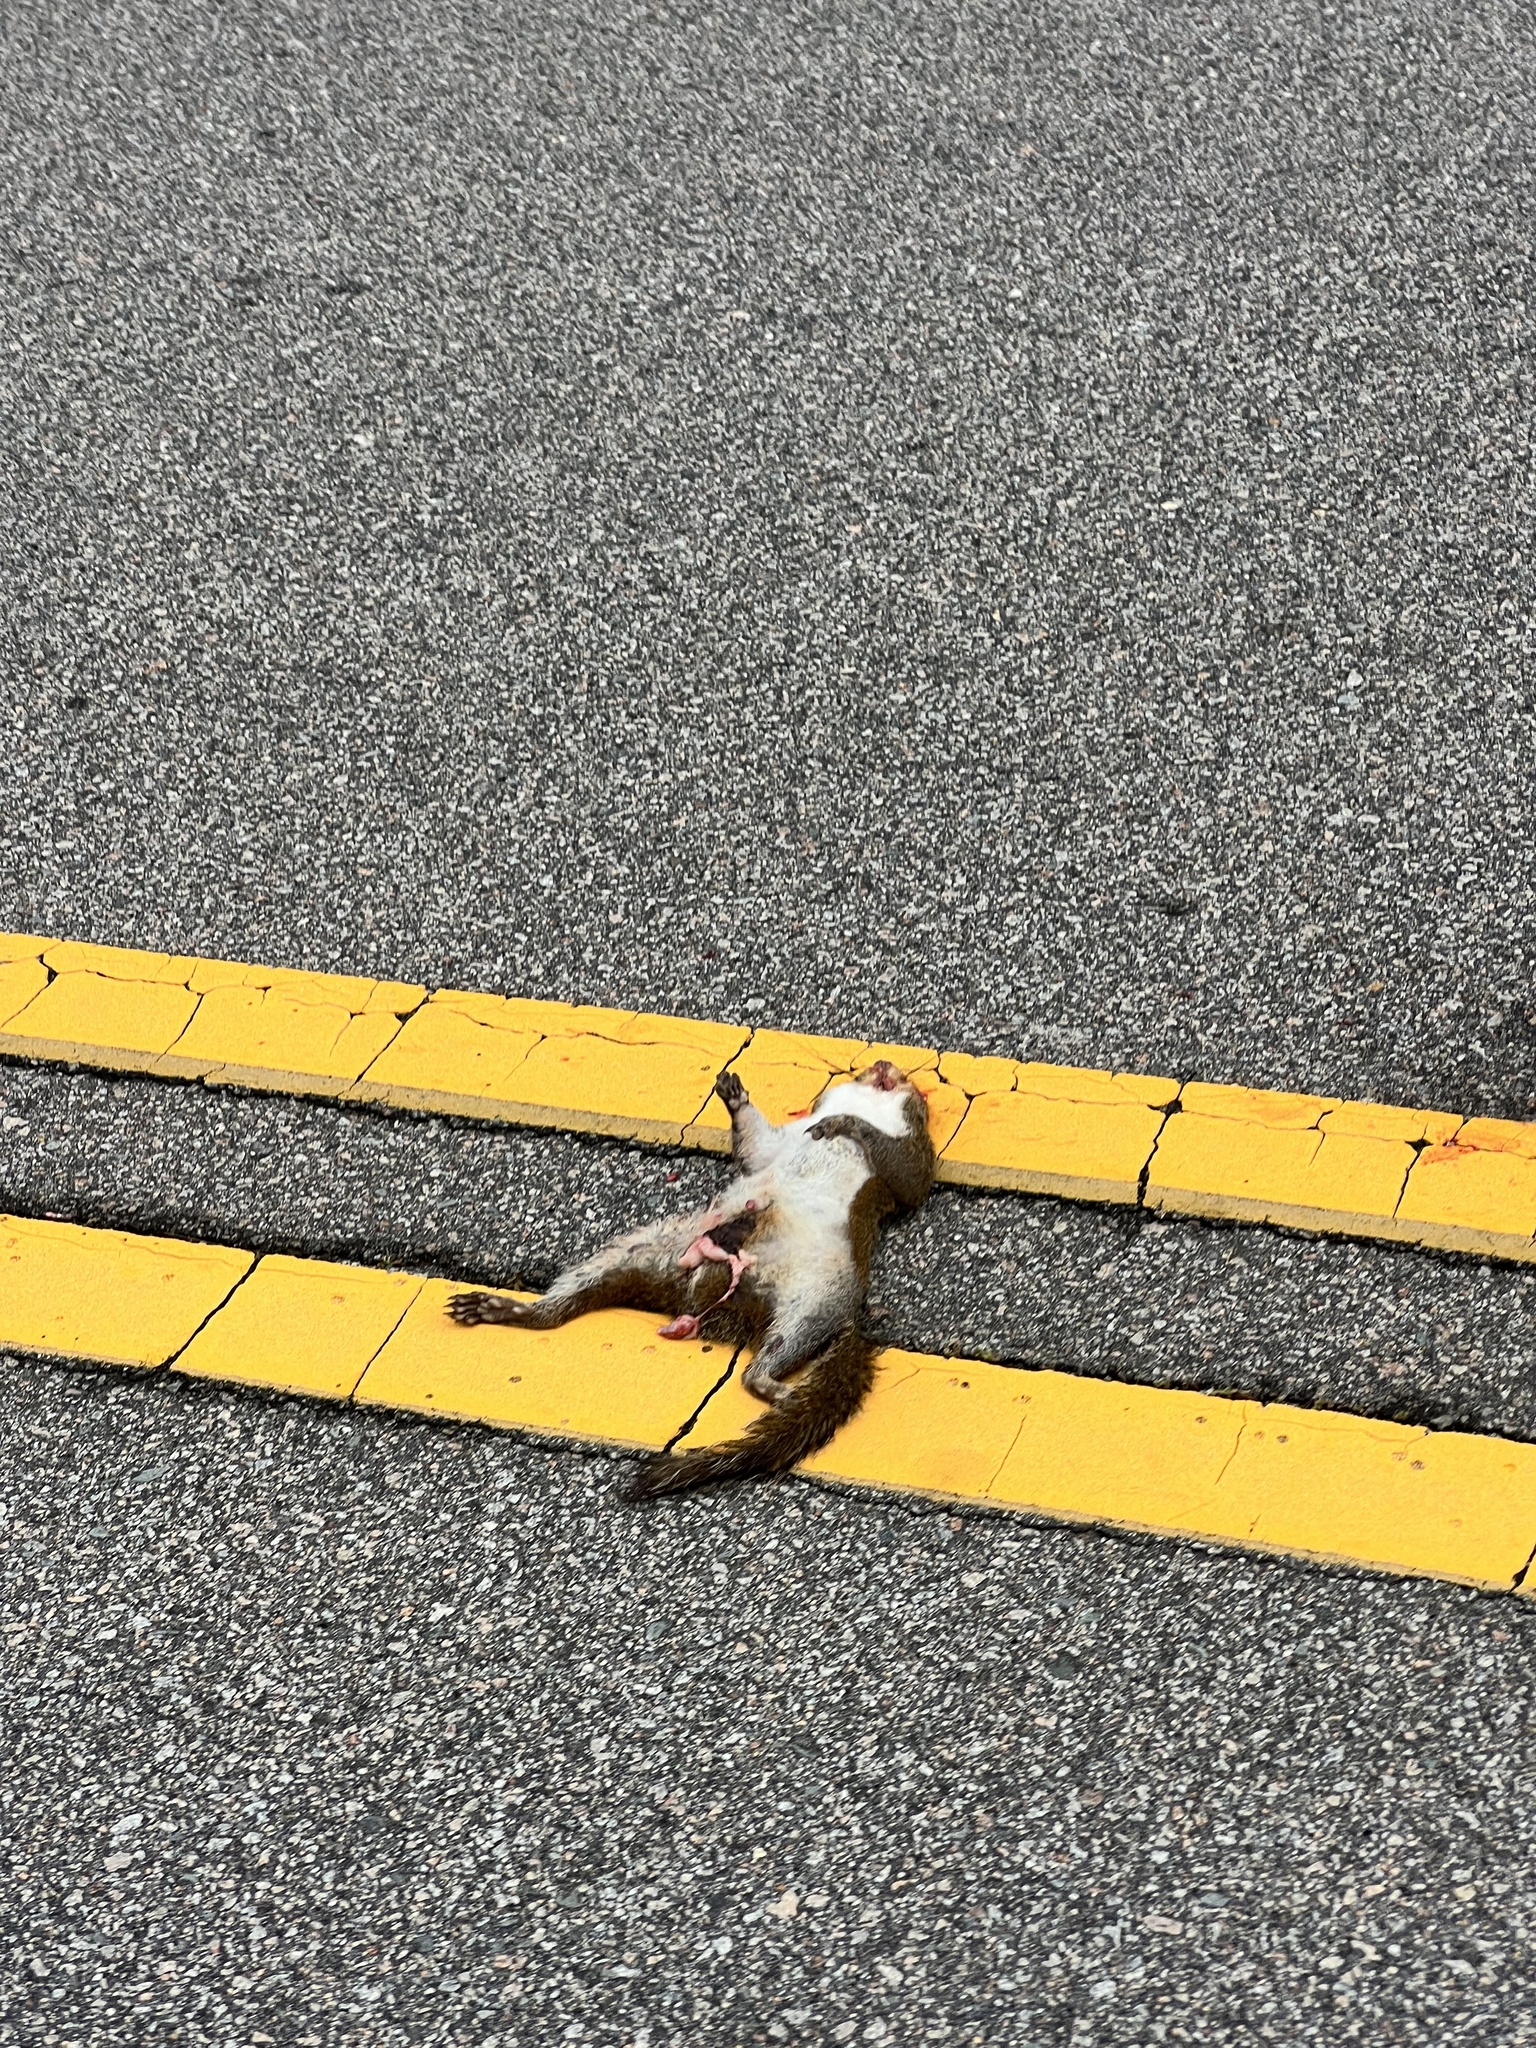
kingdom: Animalia
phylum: Chordata
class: Mammalia
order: Rodentia
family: Sciuridae
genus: Sciurus
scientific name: Sciurus carolinensis
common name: Eastern gray squirrel
